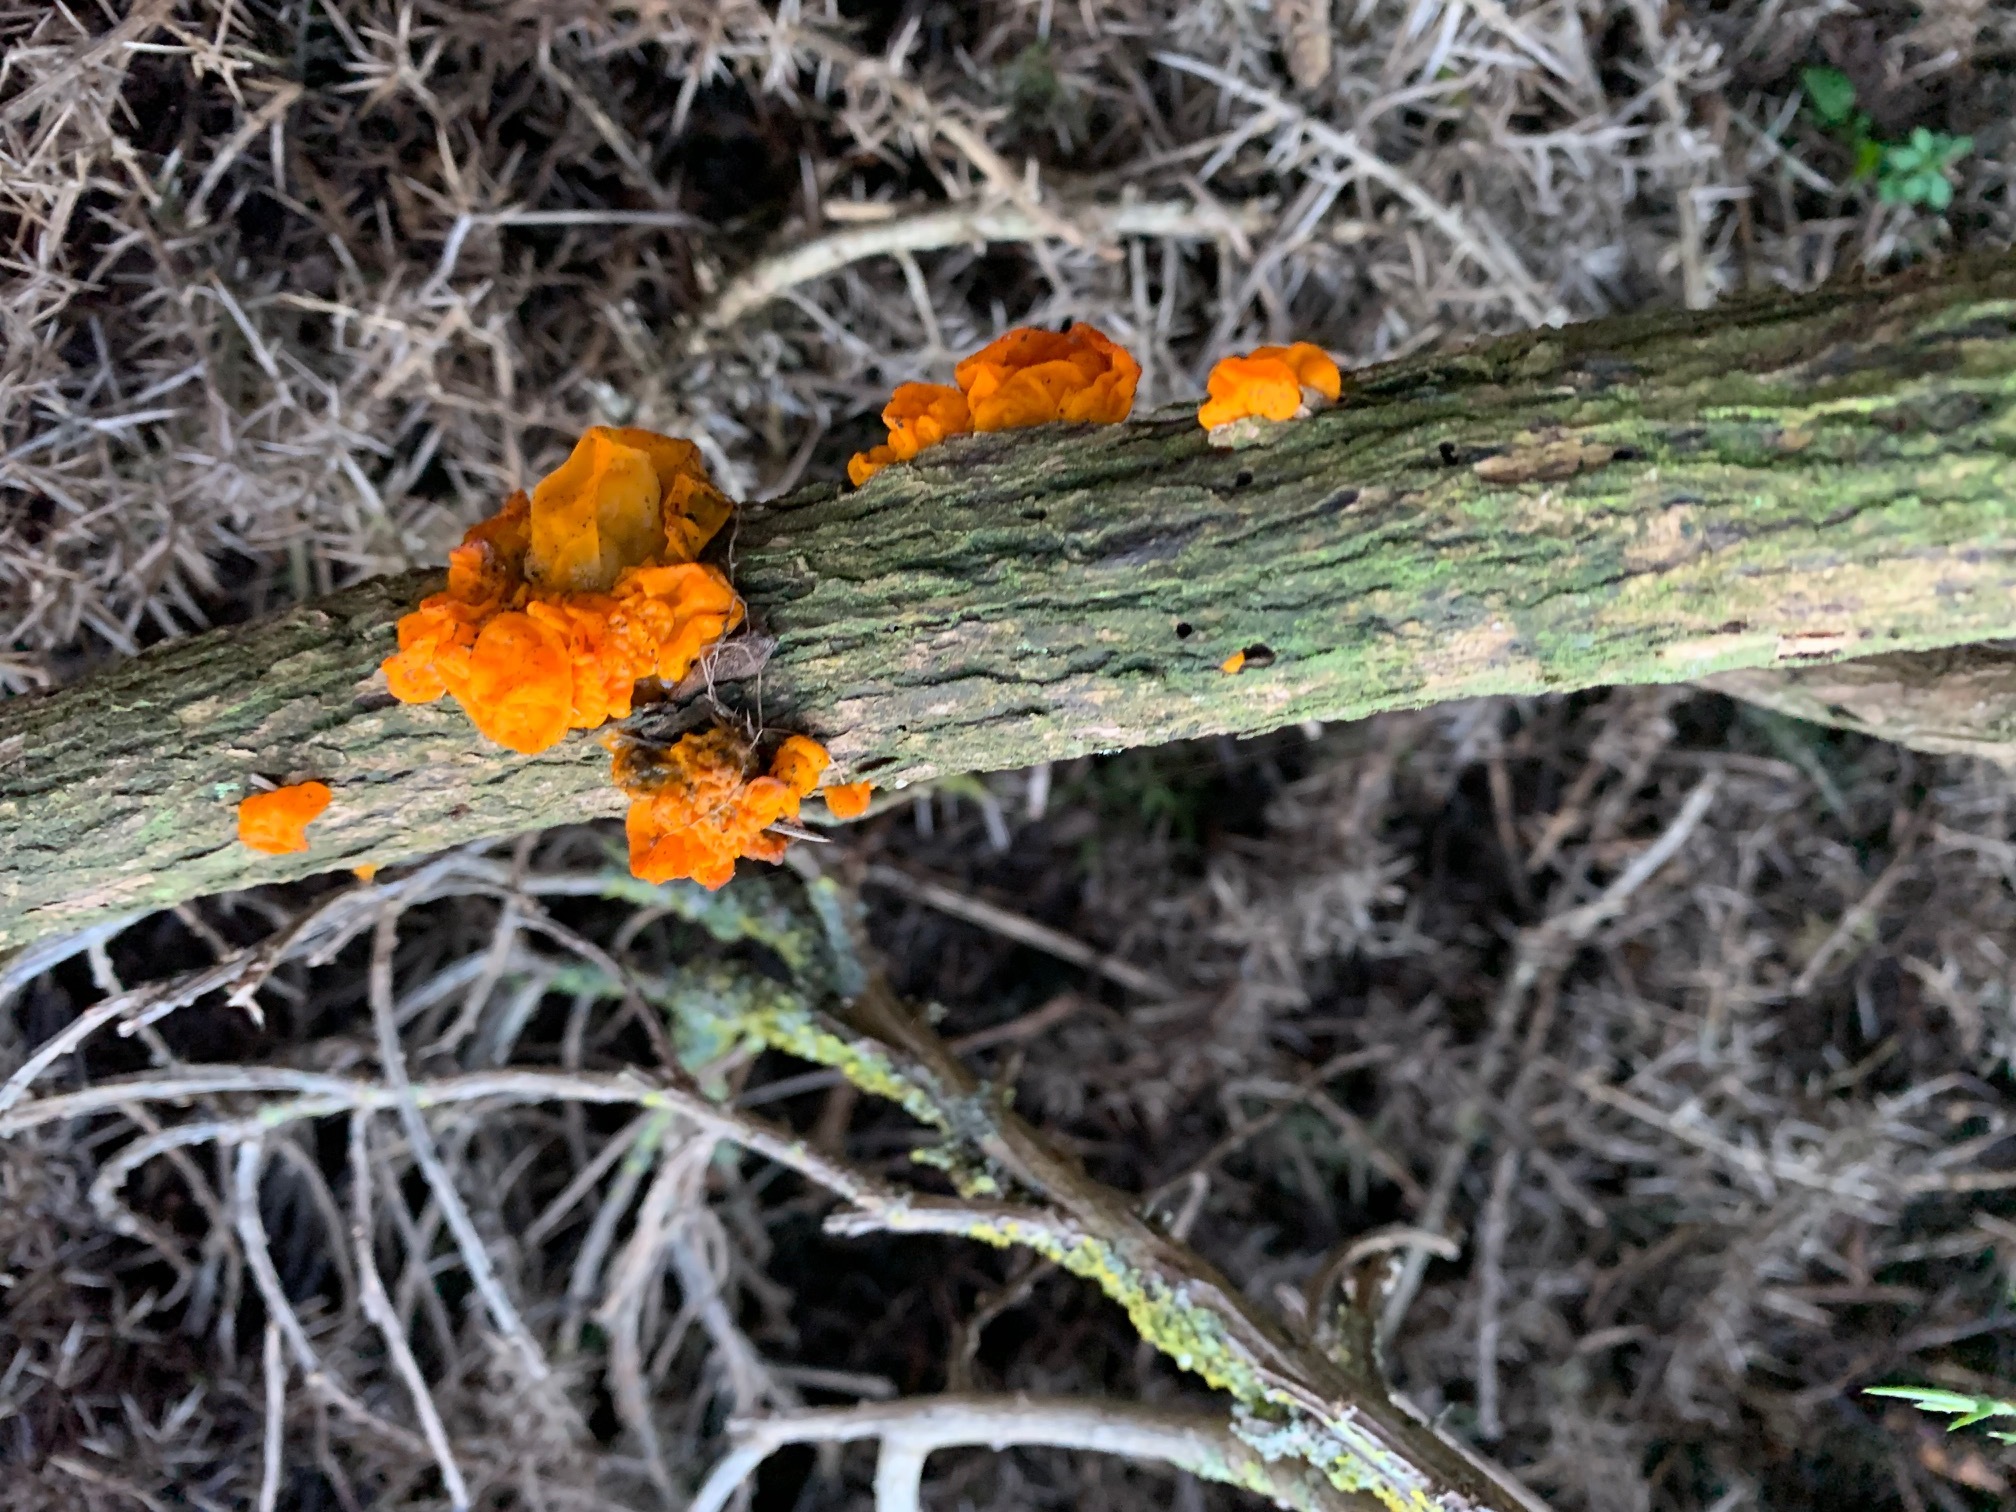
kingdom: Fungi
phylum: Basidiomycota
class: Tremellomycetes
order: Tremellales
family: Tremellaceae
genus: Tremella
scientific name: Tremella mesenterica
